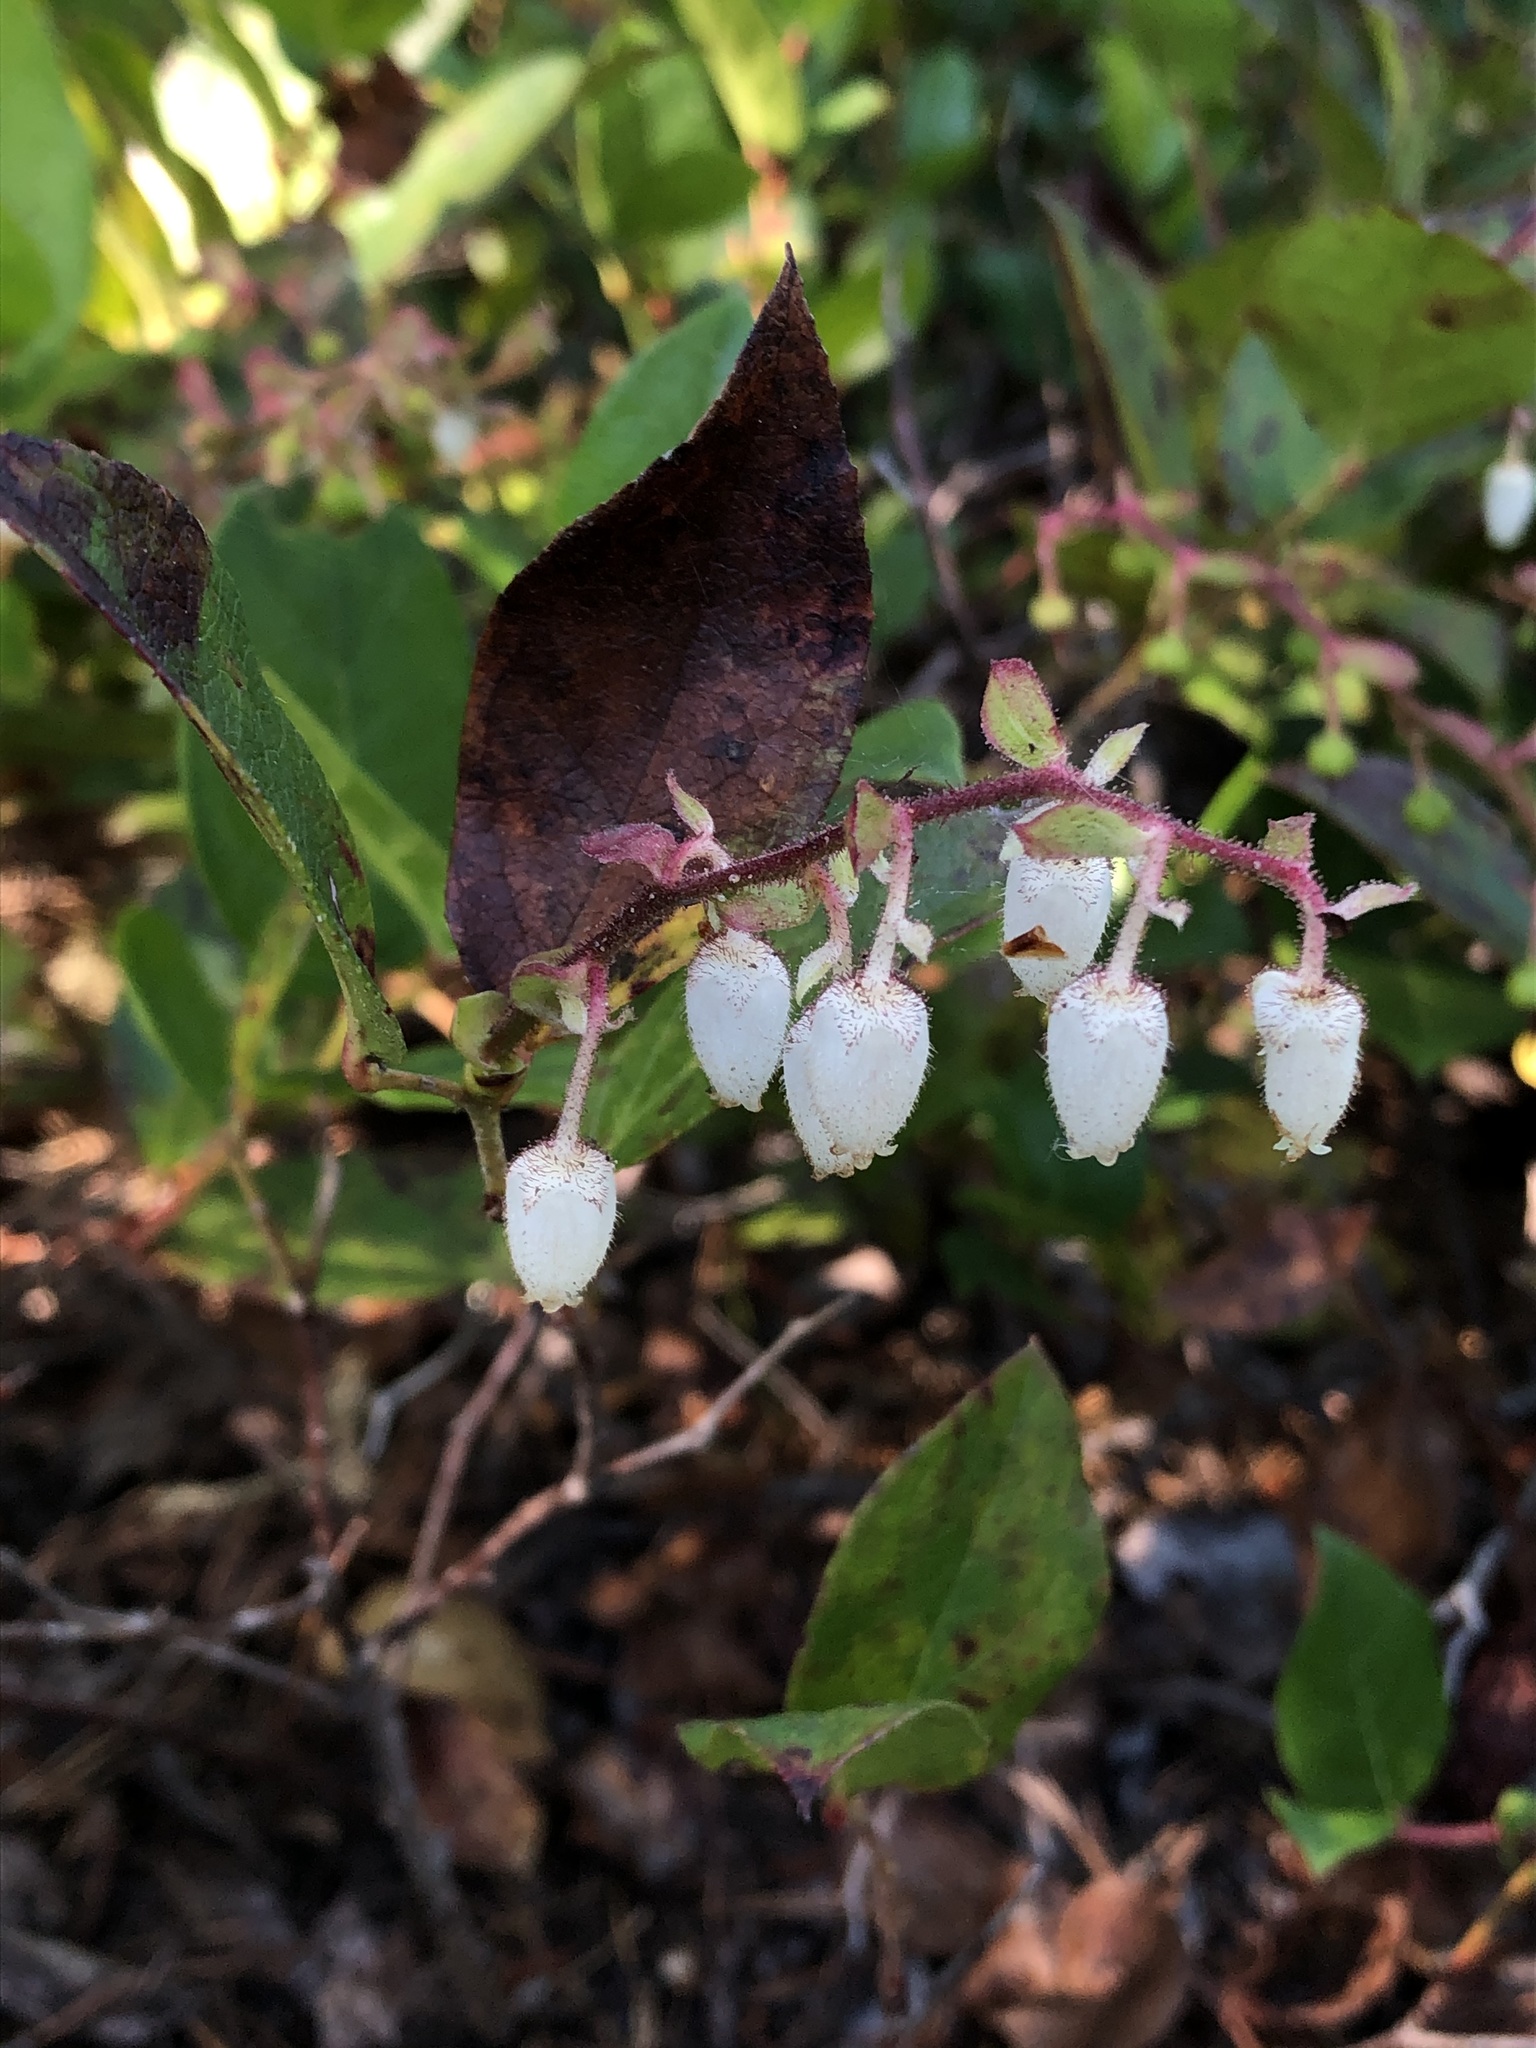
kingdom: Plantae
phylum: Tracheophyta
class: Magnoliopsida
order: Ericales
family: Ericaceae
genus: Gaultheria
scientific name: Gaultheria shallon
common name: Shallon
